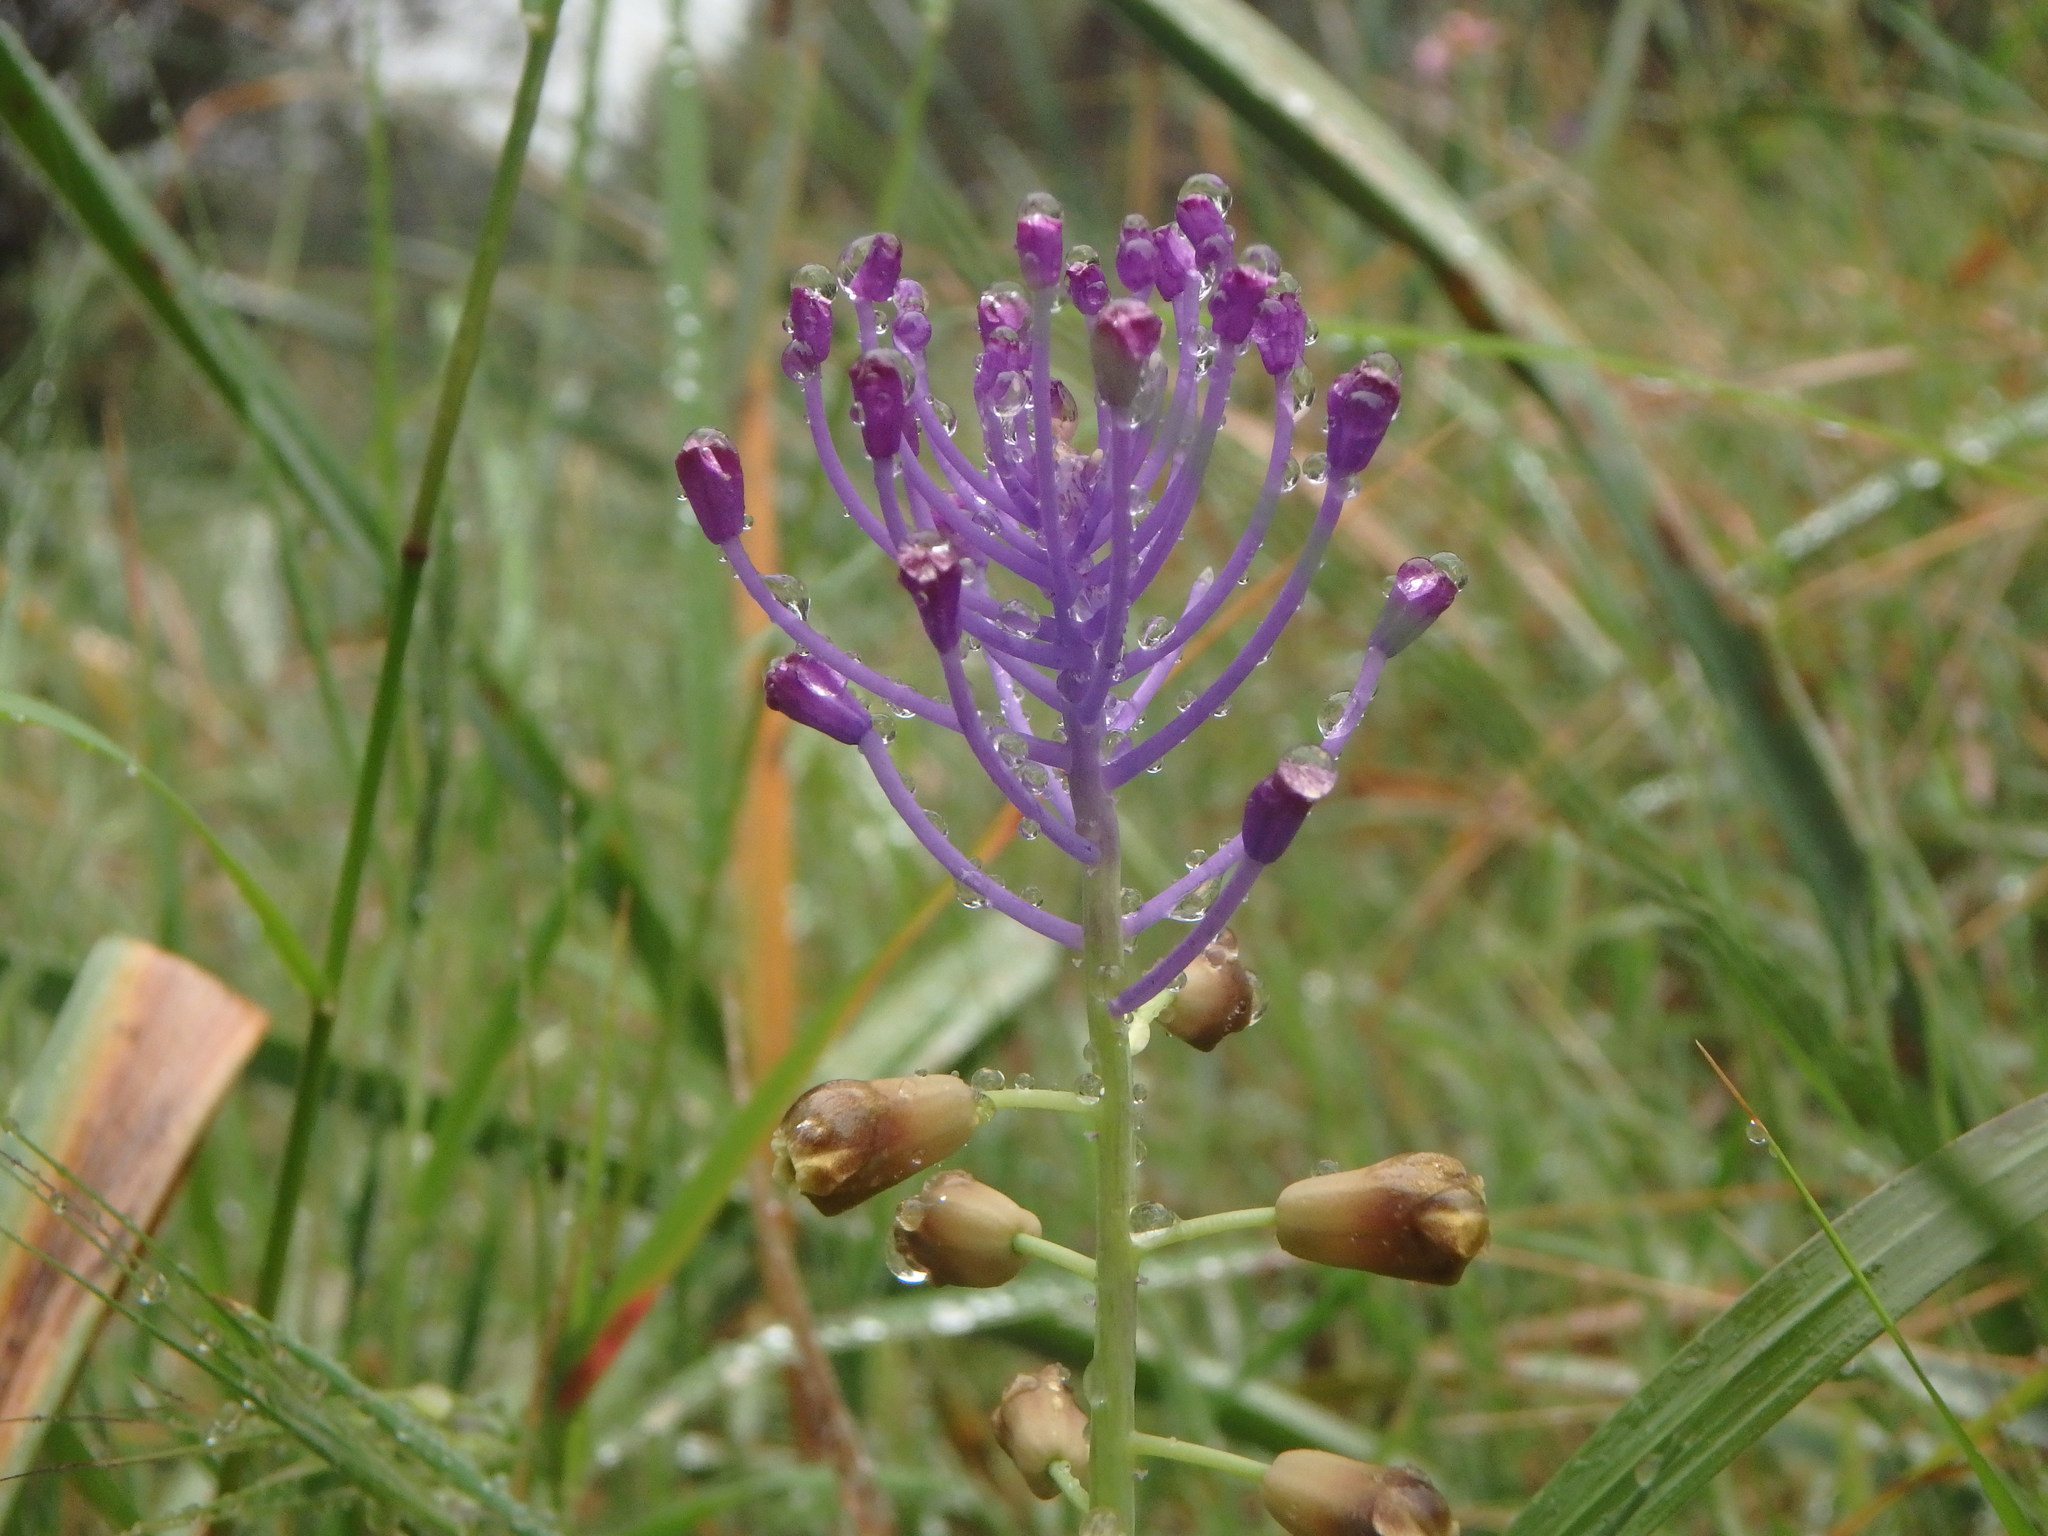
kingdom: Plantae
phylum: Tracheophyta
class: Liliopsida
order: Asparagales
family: Asparagaceae
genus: Muscari
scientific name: Muscari comosum
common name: Tassel hyacinth
